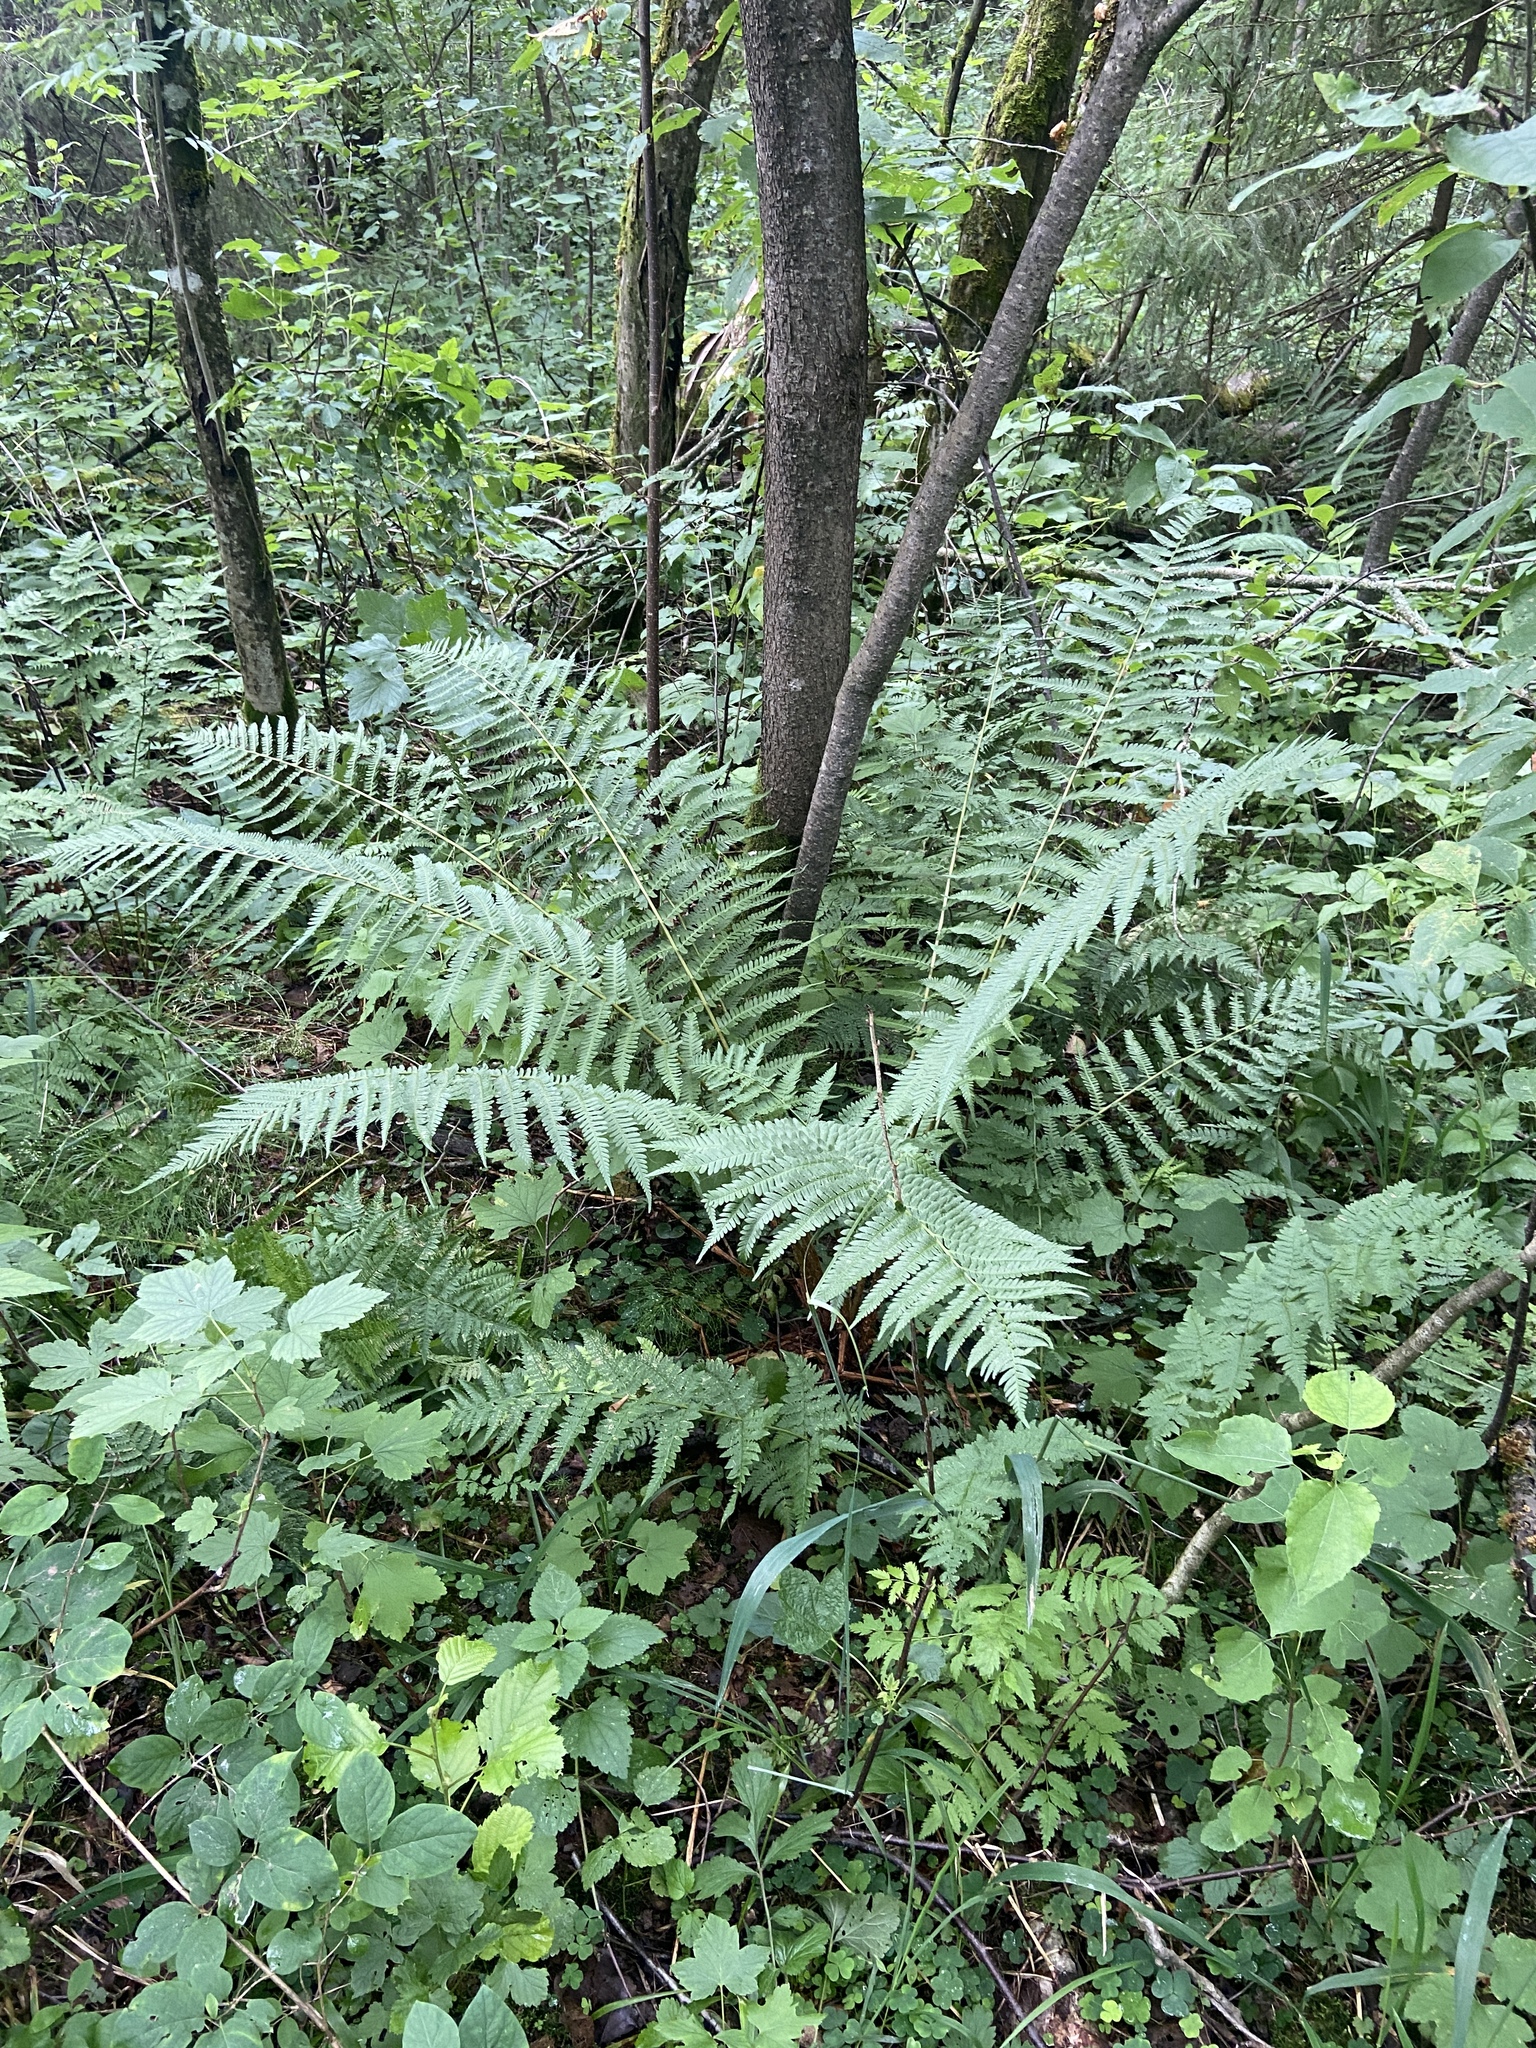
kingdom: Plantae
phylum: Tracheophyta
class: Polypodiopsida
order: Polypodiales
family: Dryopteridaceae
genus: Dryopteris
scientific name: Dryopteris filix-mas
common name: Male fern
